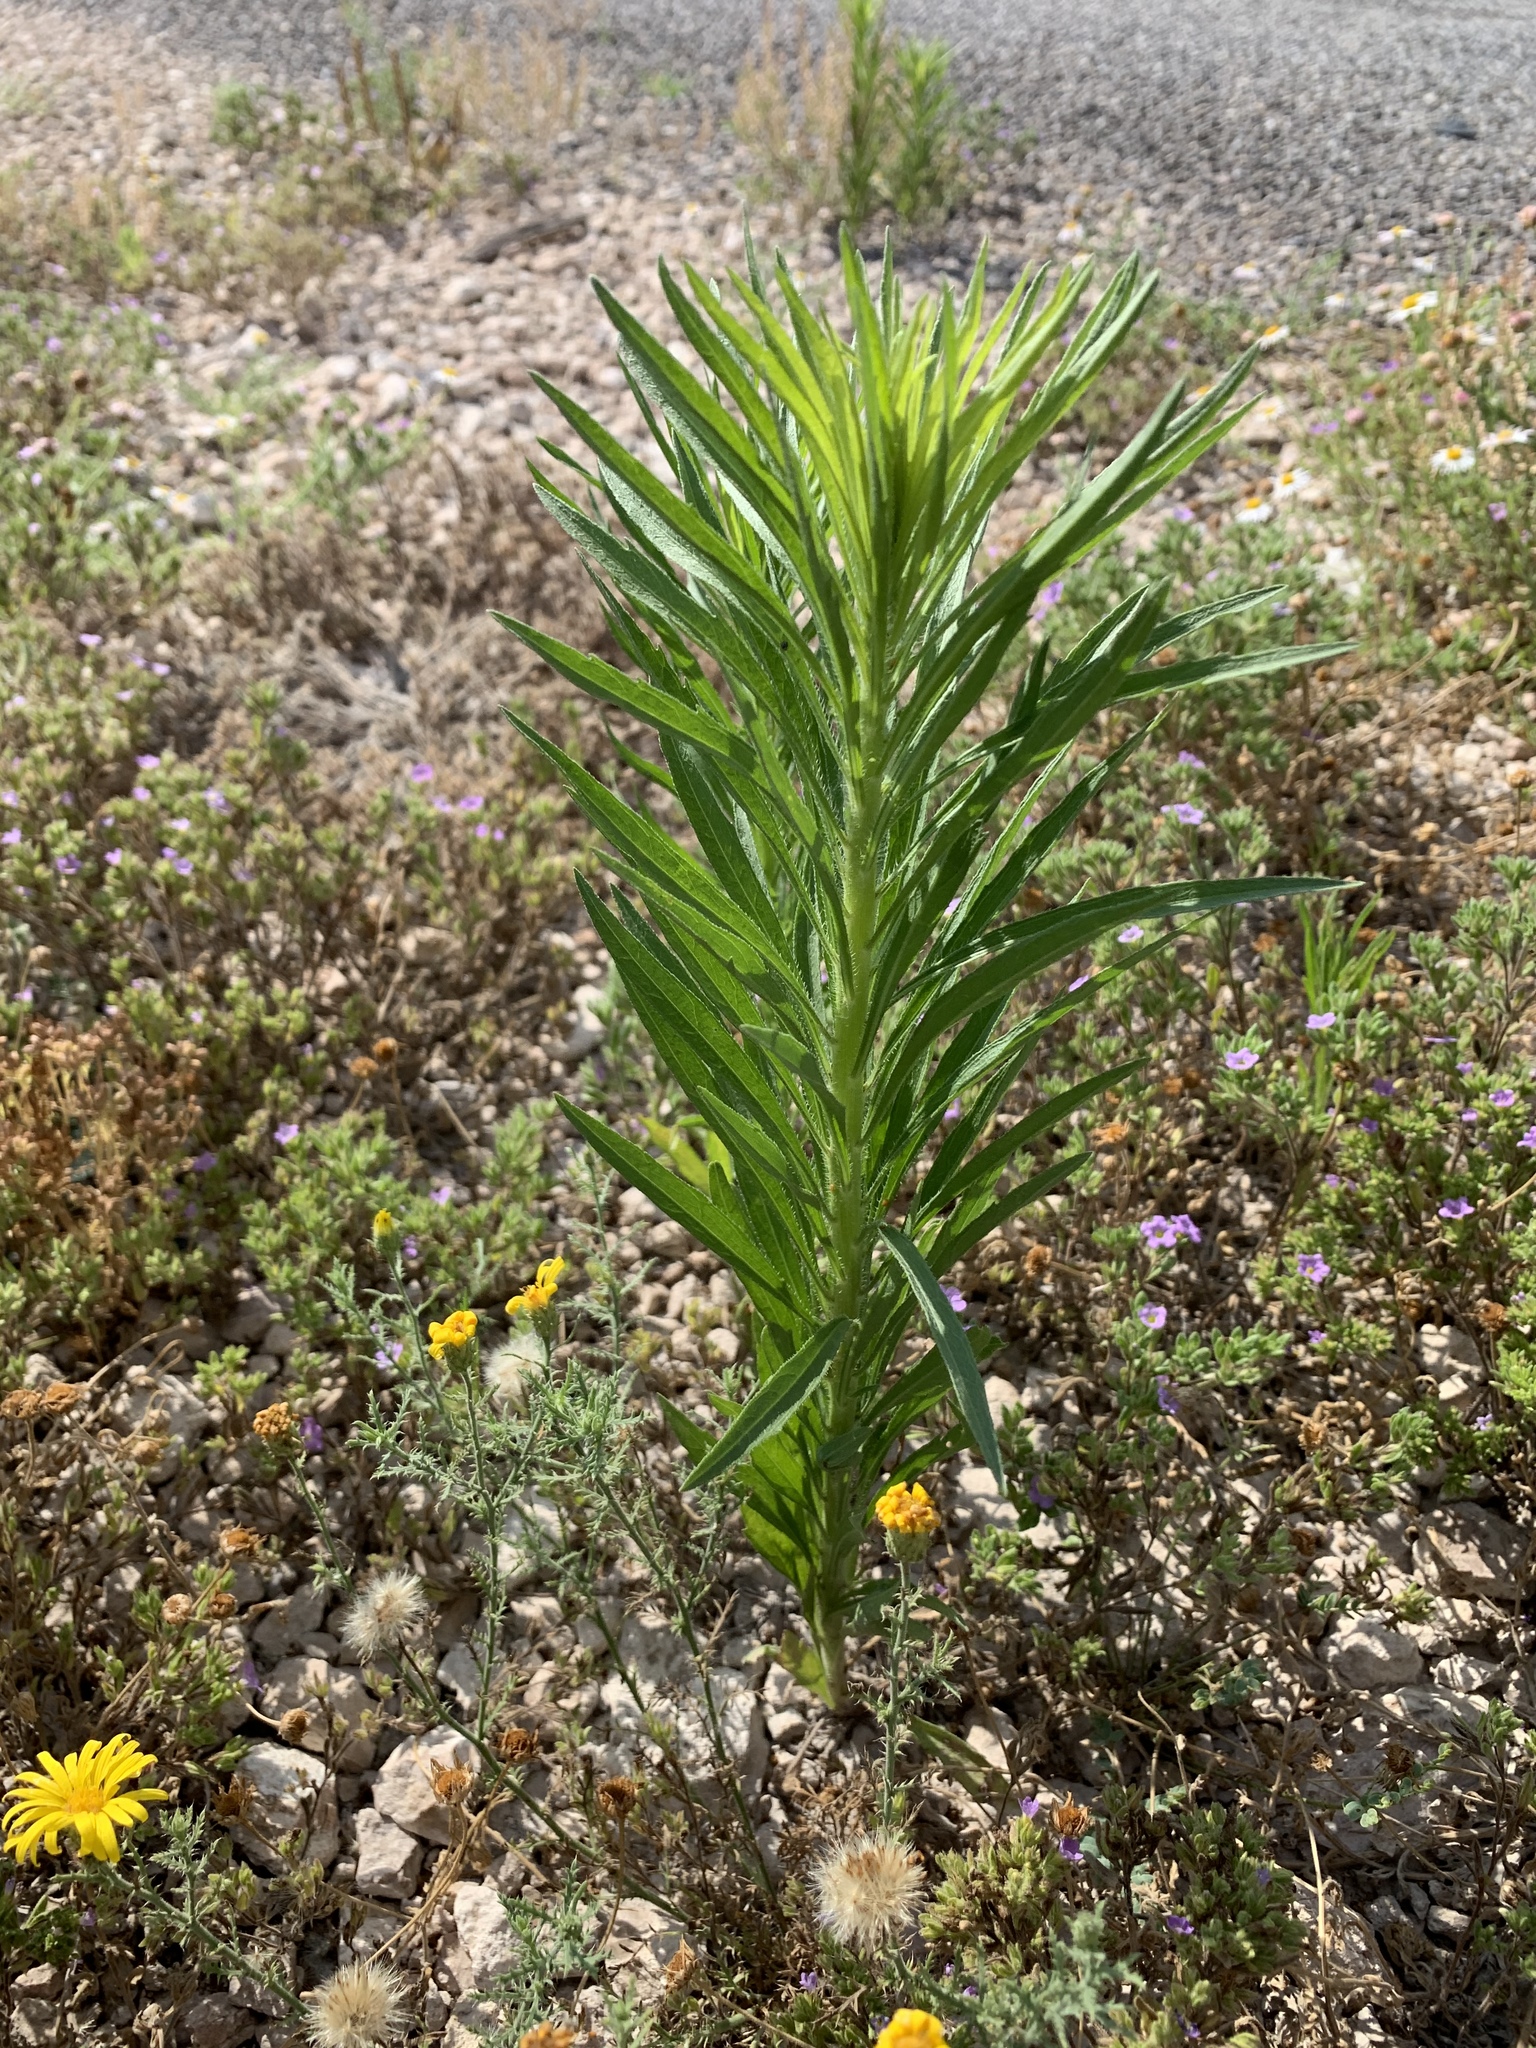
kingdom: Plantae
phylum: Tracheophyta
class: Magnoliopsida
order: Asterales
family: Asteraceae
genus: Erigeron
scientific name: Erigeron canadensis
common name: Canadian fleabane
